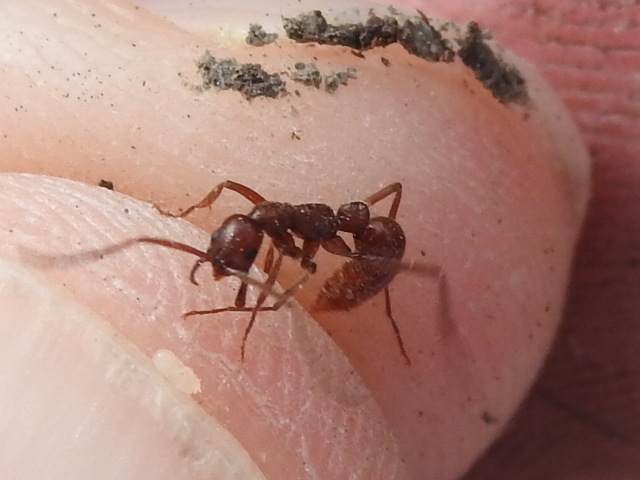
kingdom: Animalia
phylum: Arthropoda
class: Insecta
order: Hymenoptera
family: Formicidae
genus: Leptogenys
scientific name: Leptogenys elongata
